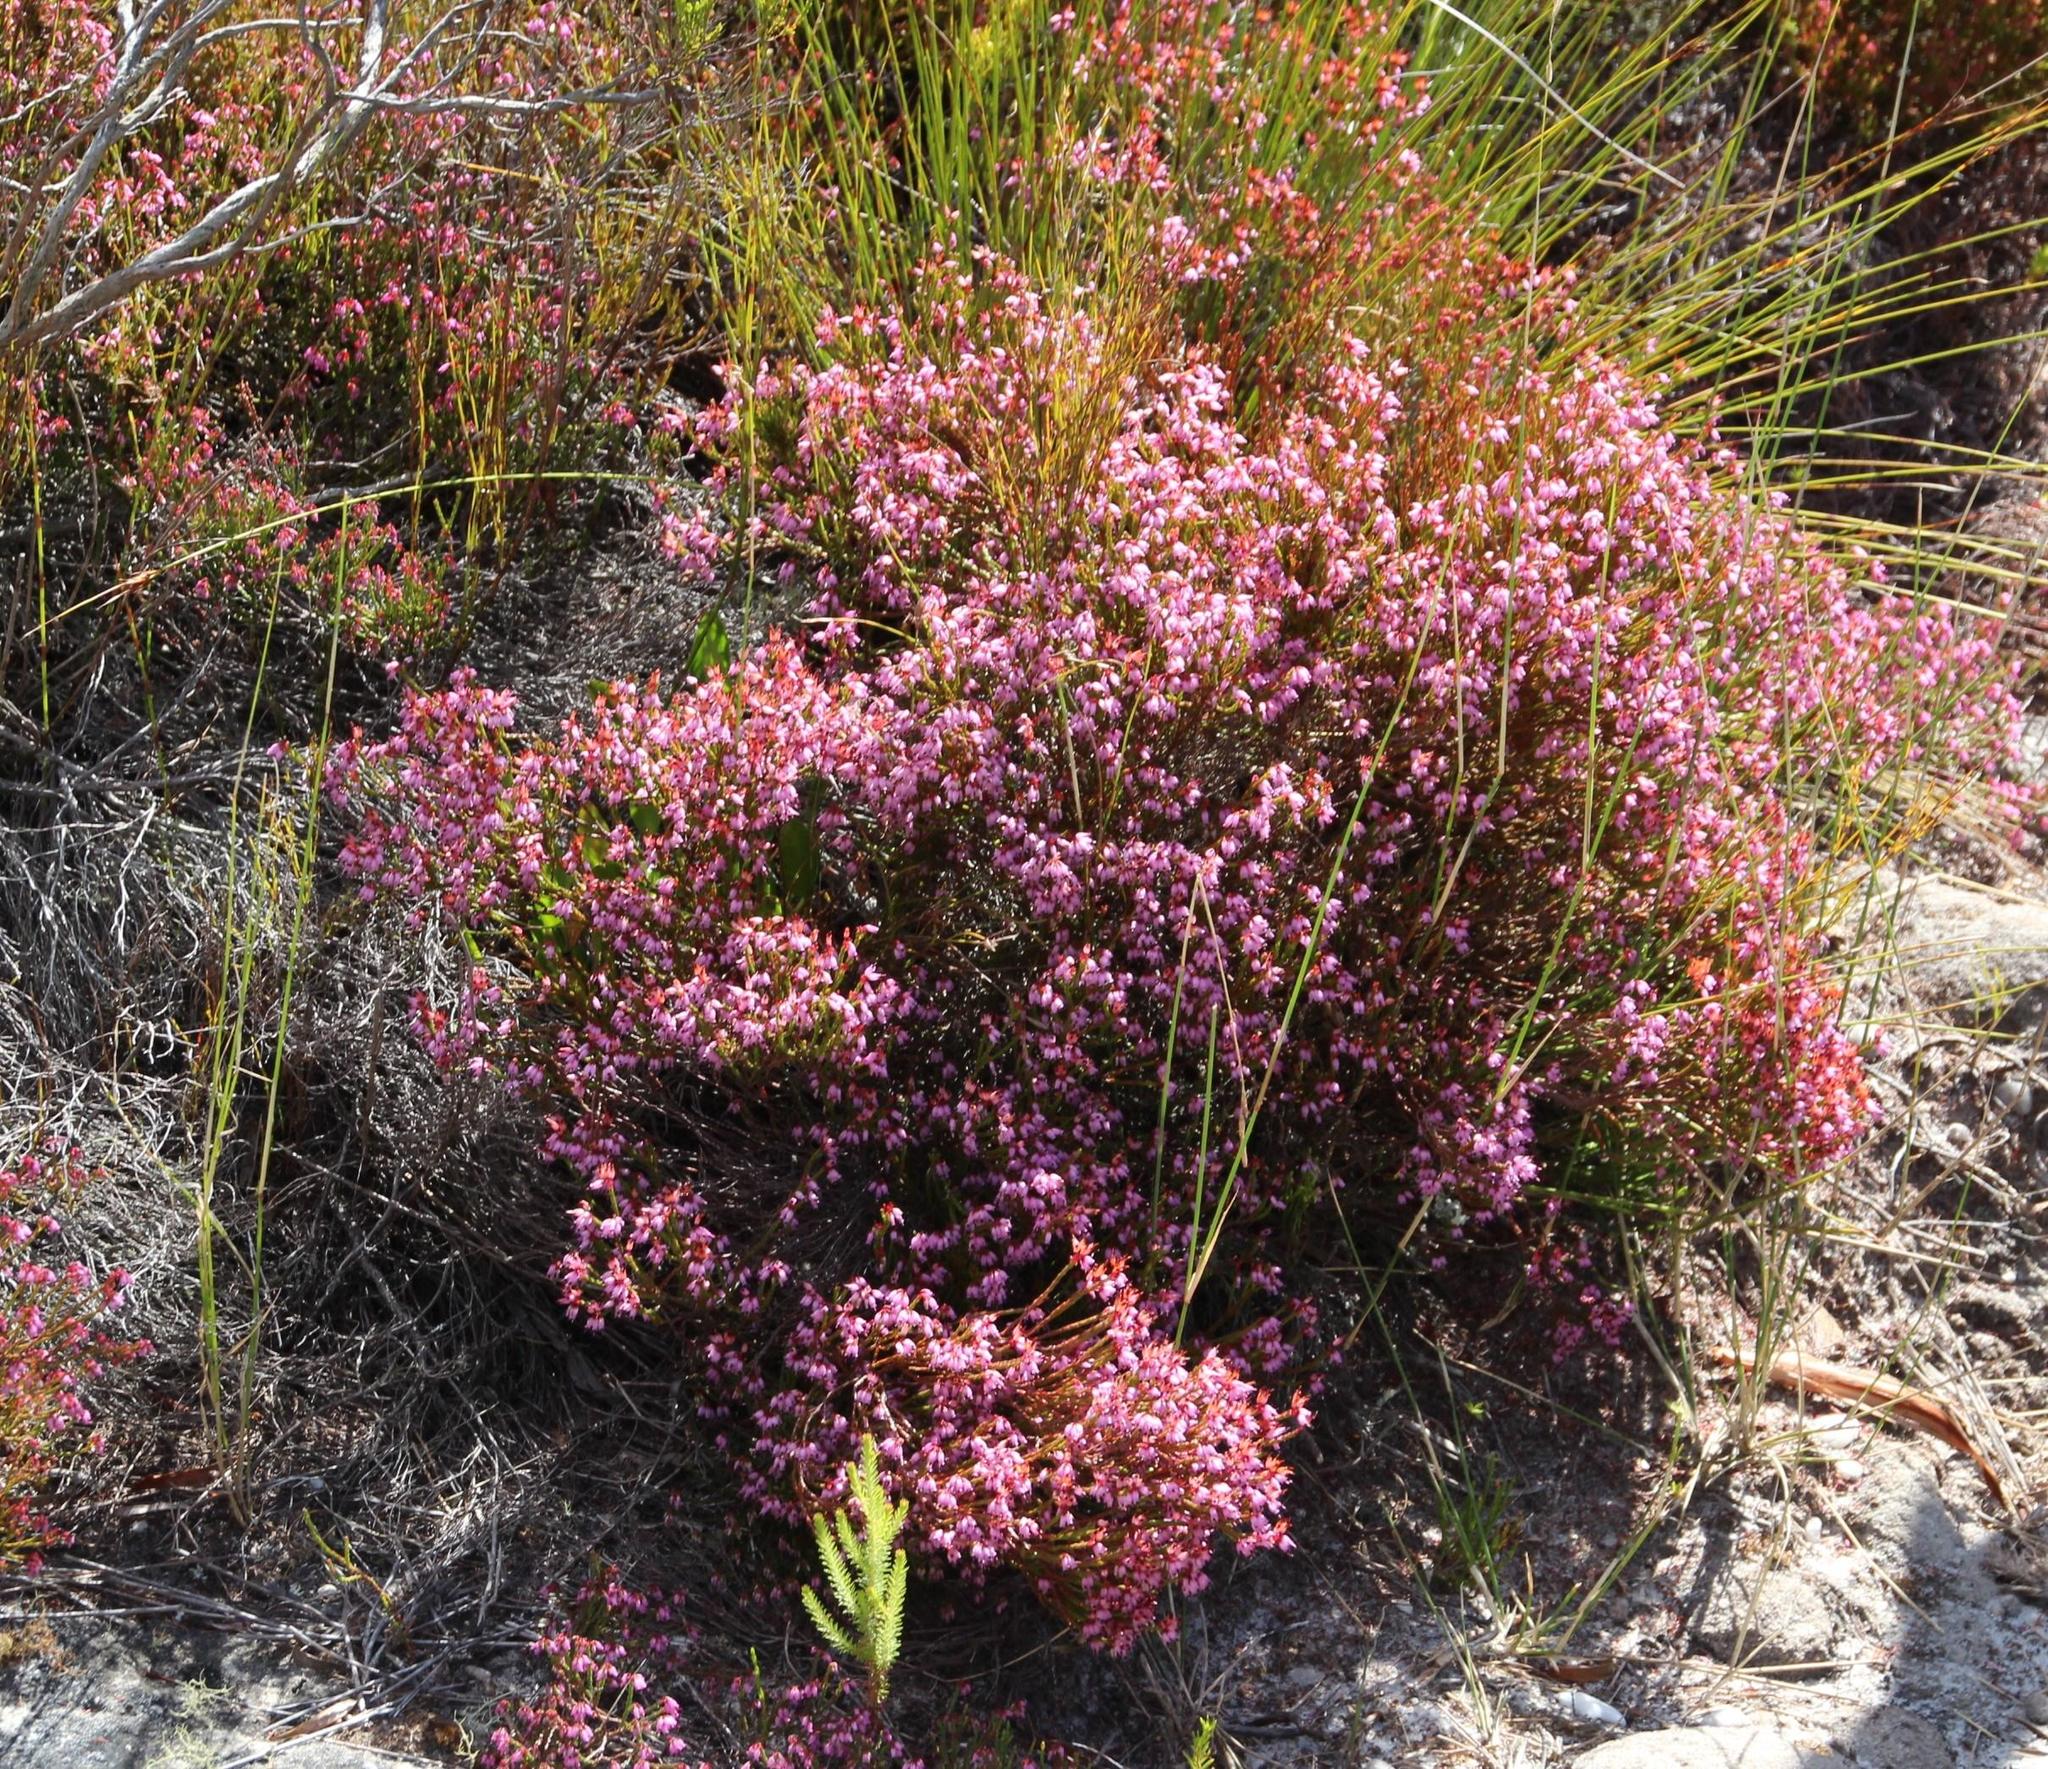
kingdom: Plantae
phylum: Tracheophyta
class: Magnoliopsida
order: Ericales
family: Ericaceae
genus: Erica
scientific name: Erica equisetifolia
